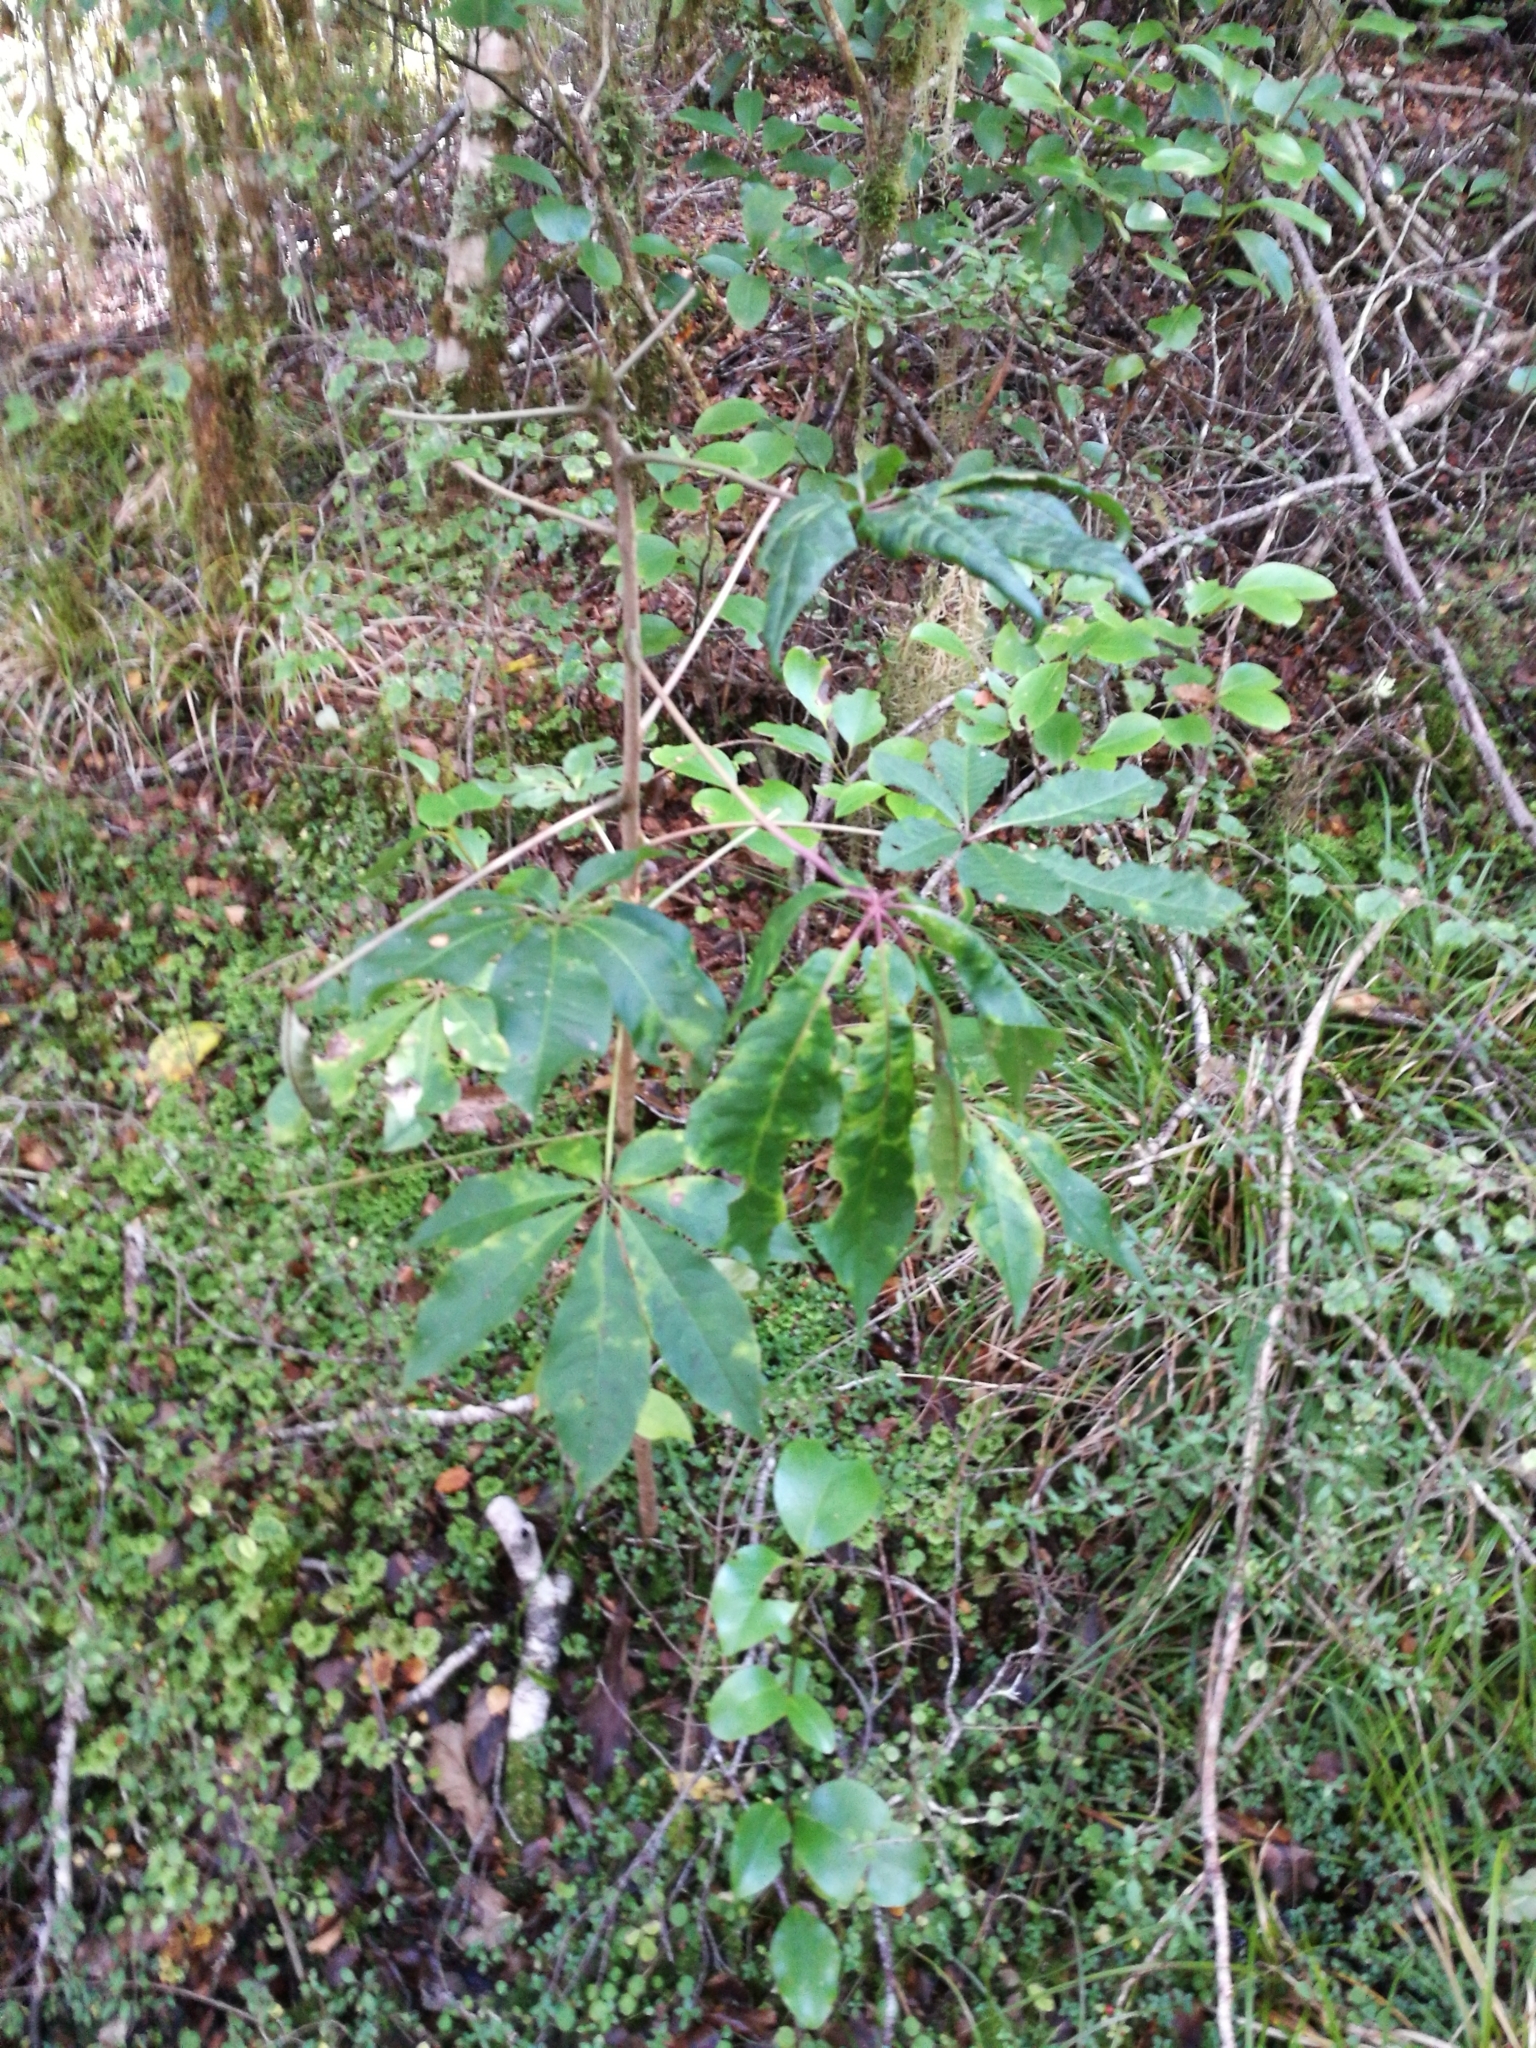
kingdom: Plantae
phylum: Tracheophyta
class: Magnoliopsida
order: Apiales
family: Araliaceae
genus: Schefflera
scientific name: Schefflera digitata
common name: Pate
